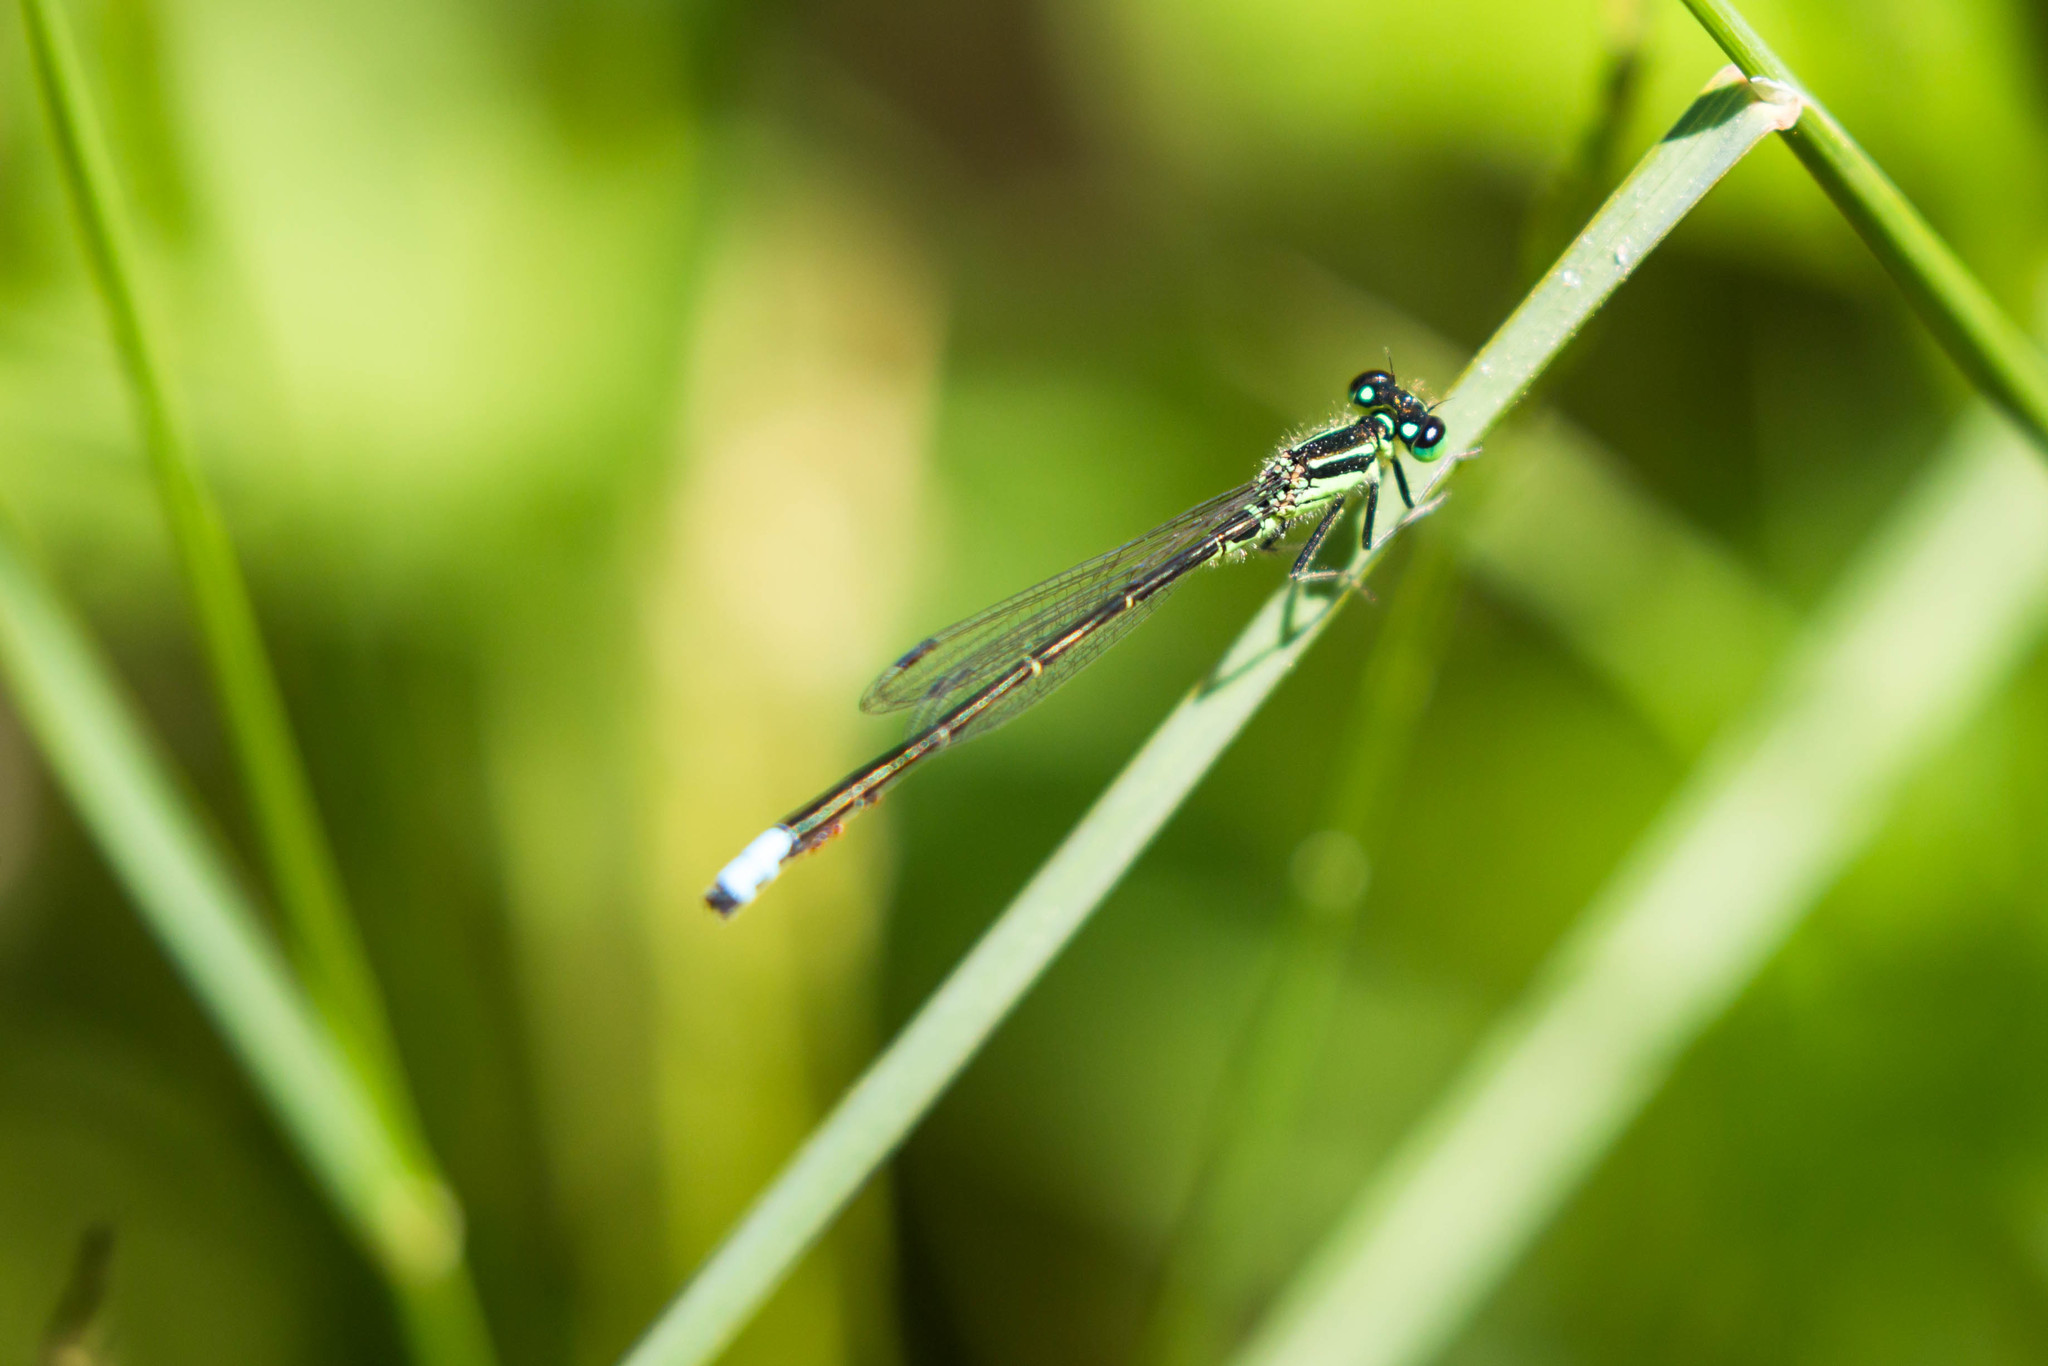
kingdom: Animalia
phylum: Arthropoda
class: Insecta
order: Odonata
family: Coenagrionidae
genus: Ischnura
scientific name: Ischnura verticalis
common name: Eastern forktail
